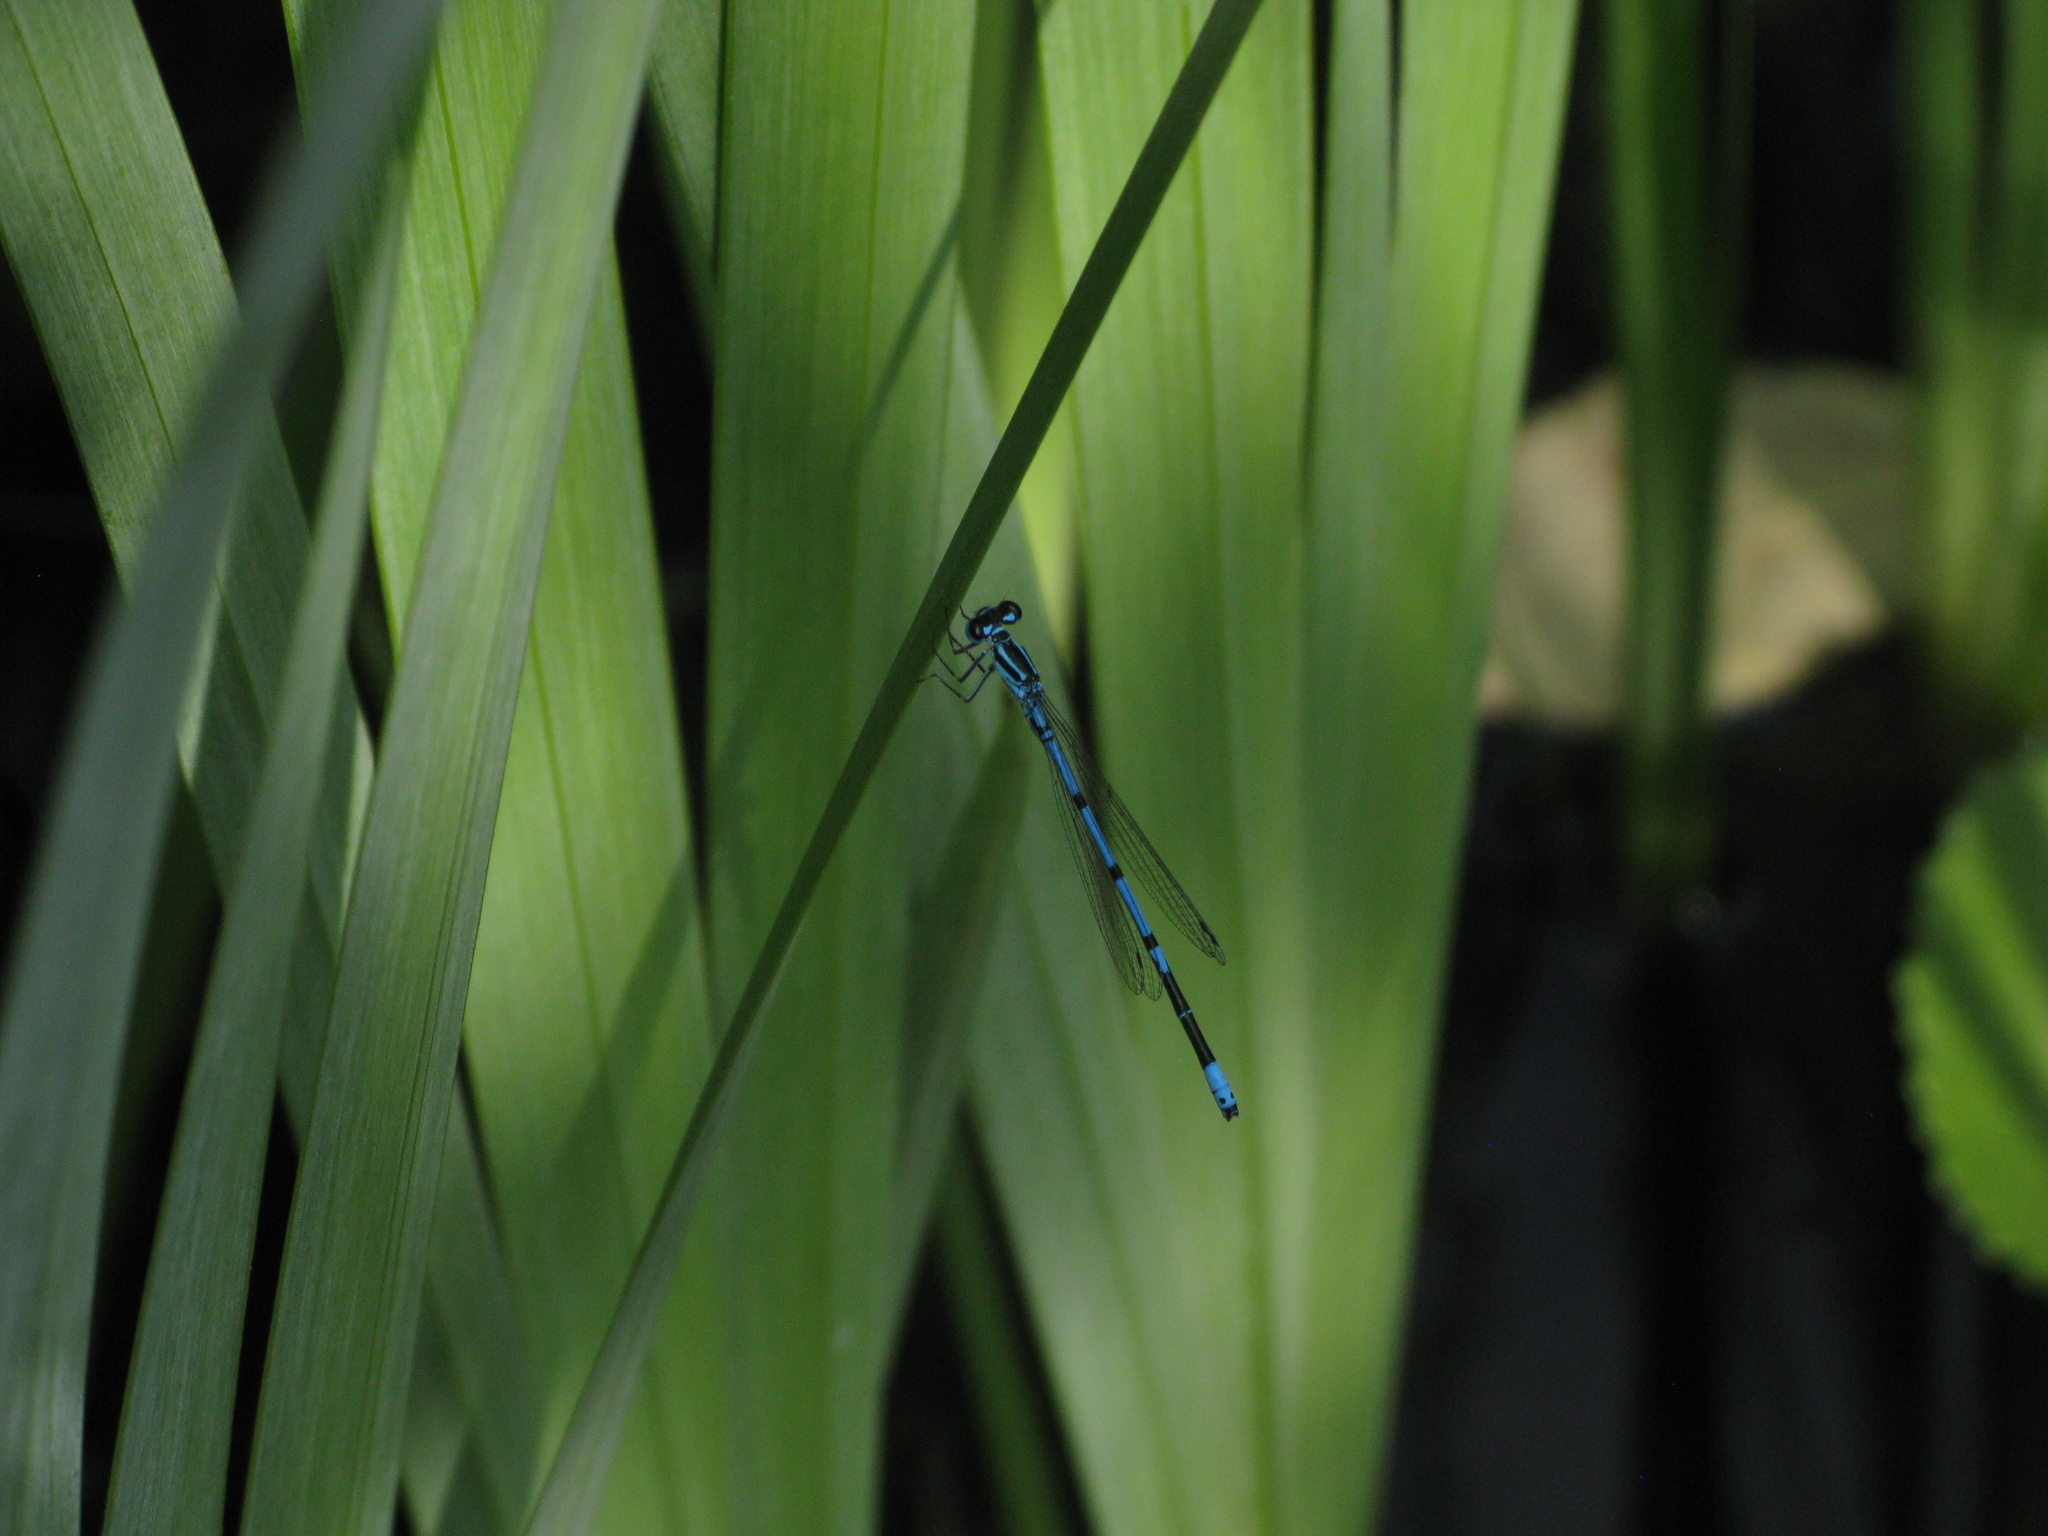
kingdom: Animalia
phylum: Arthropoda
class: Insecta
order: Odonata
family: Coenagrionidae
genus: Coenagrion
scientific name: Coenagrion puella
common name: Azure damselfly
